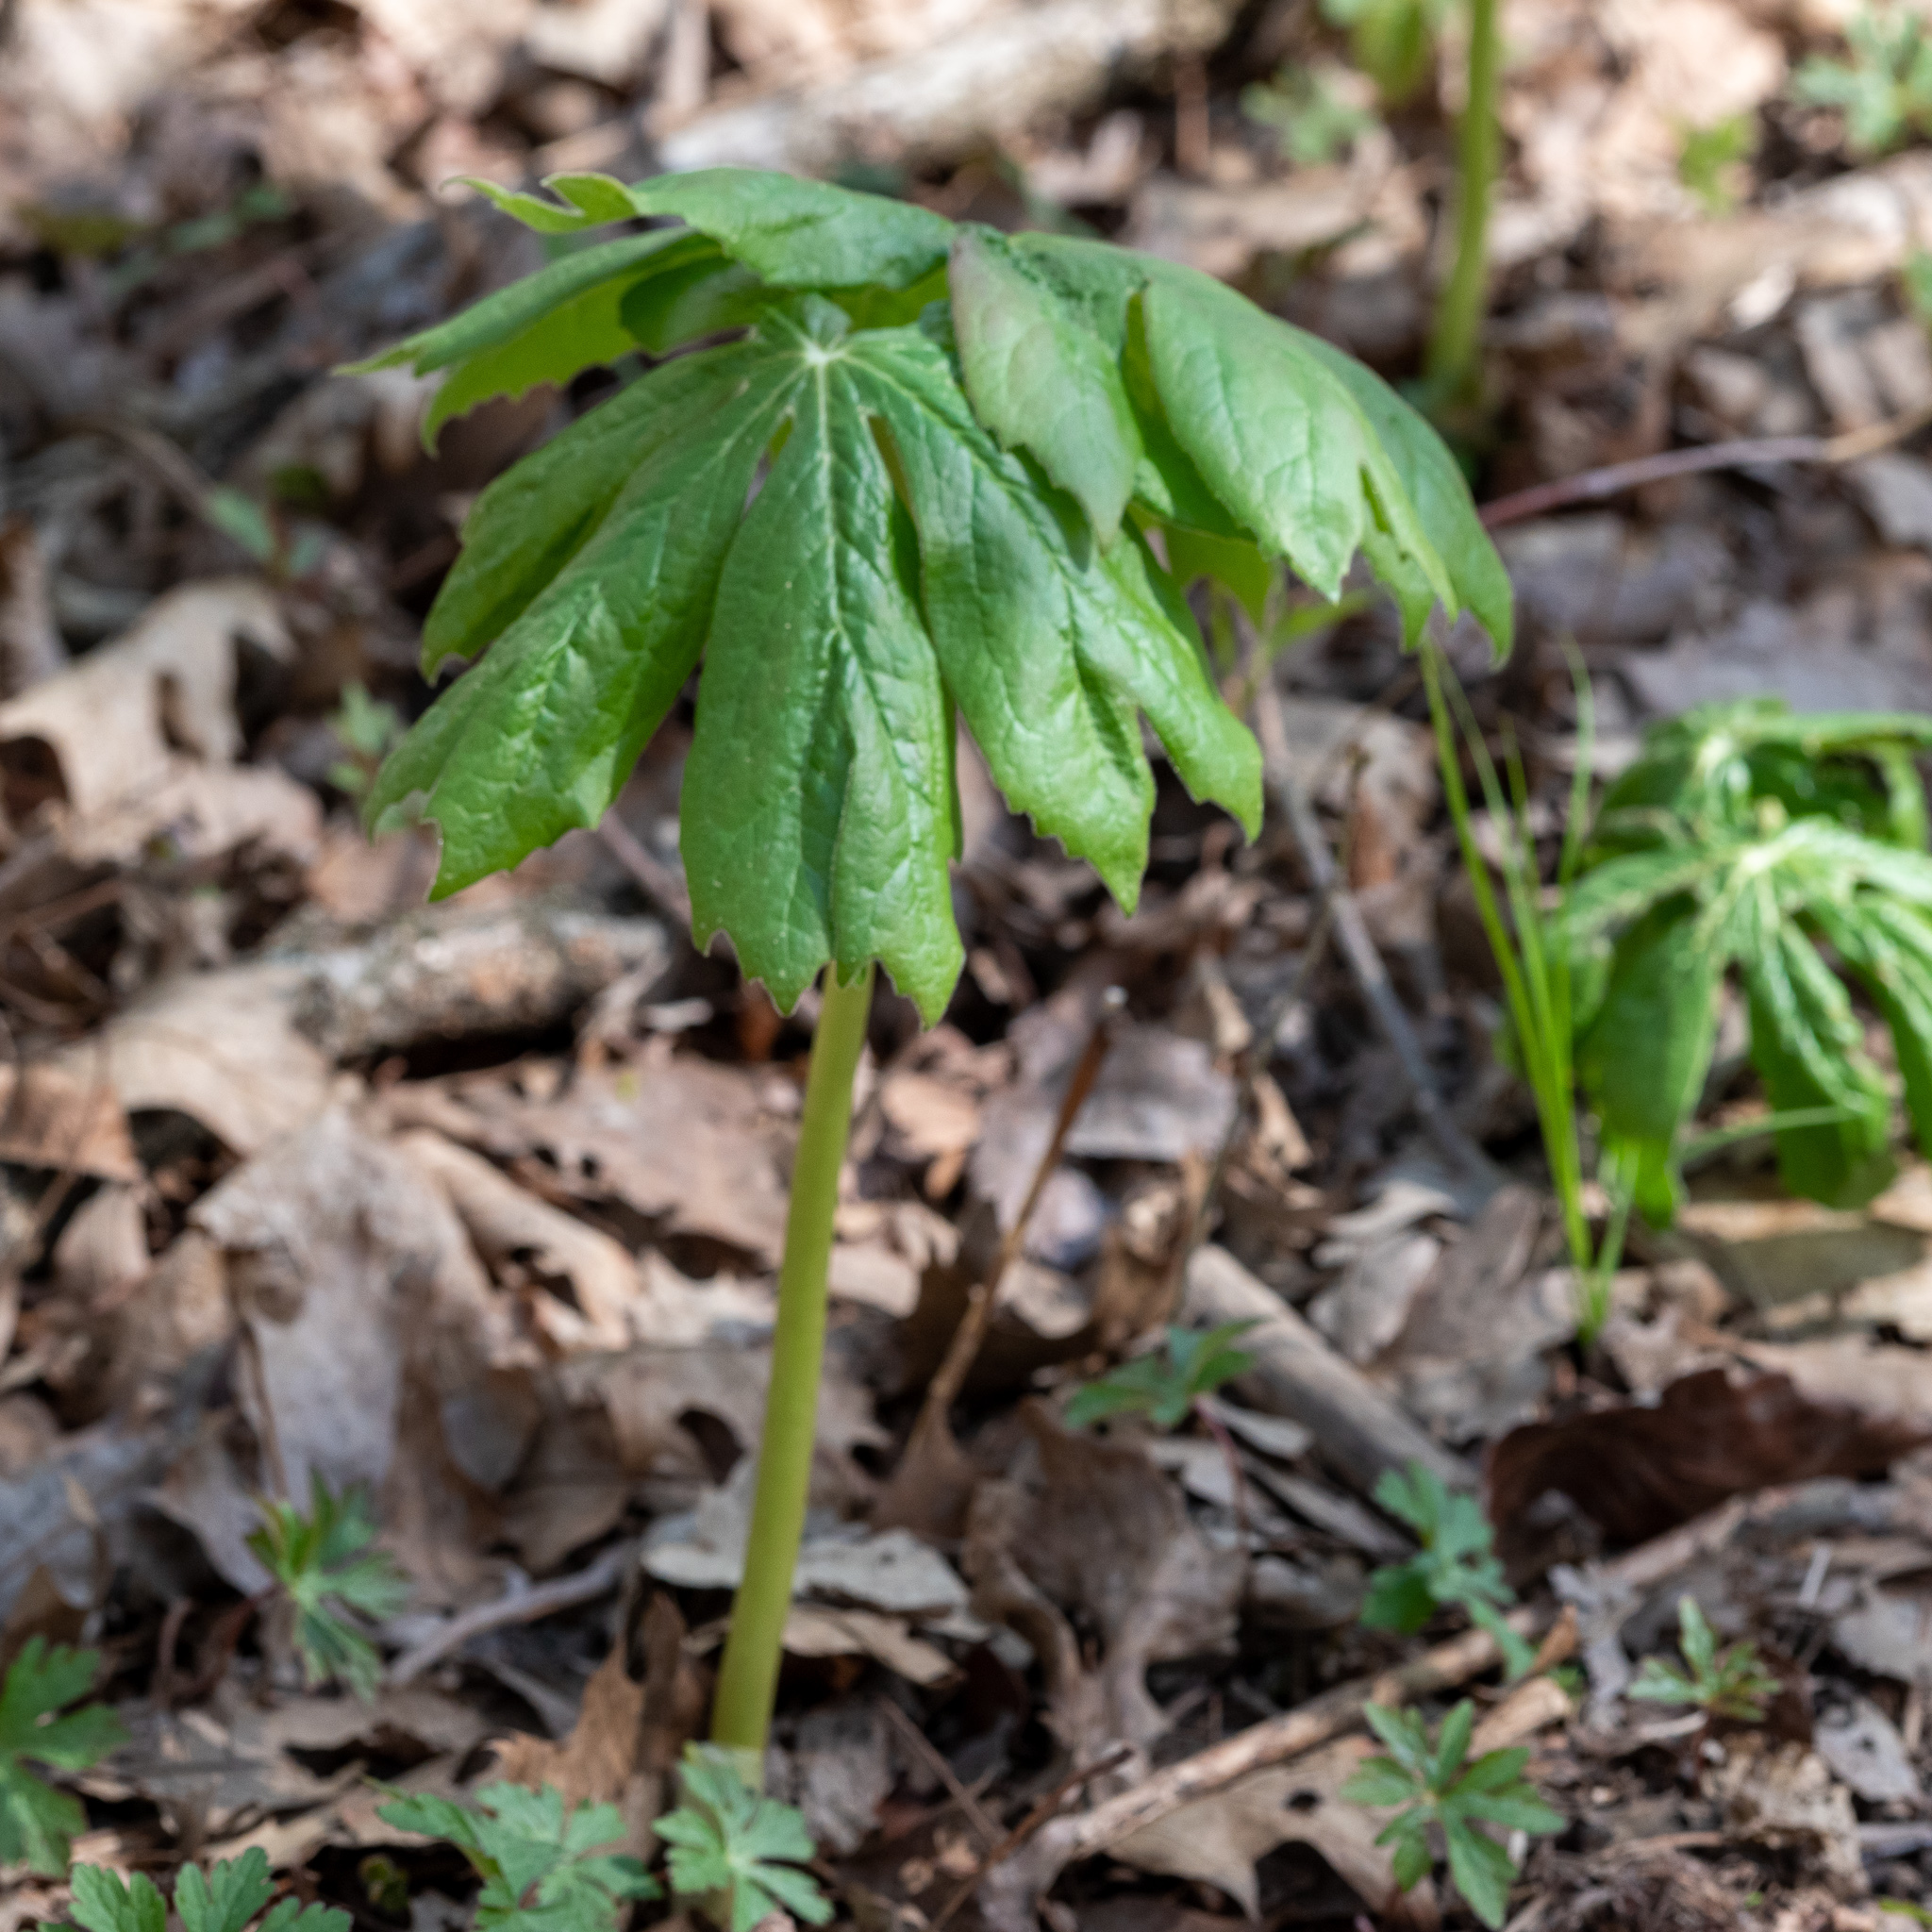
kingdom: Plantae
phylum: Tracheophyta
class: Magnoliopsida
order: Ranunculales
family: Berberidaceae
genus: Podophyllum
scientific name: Podophyllum peltatum
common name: Wild mandrake
